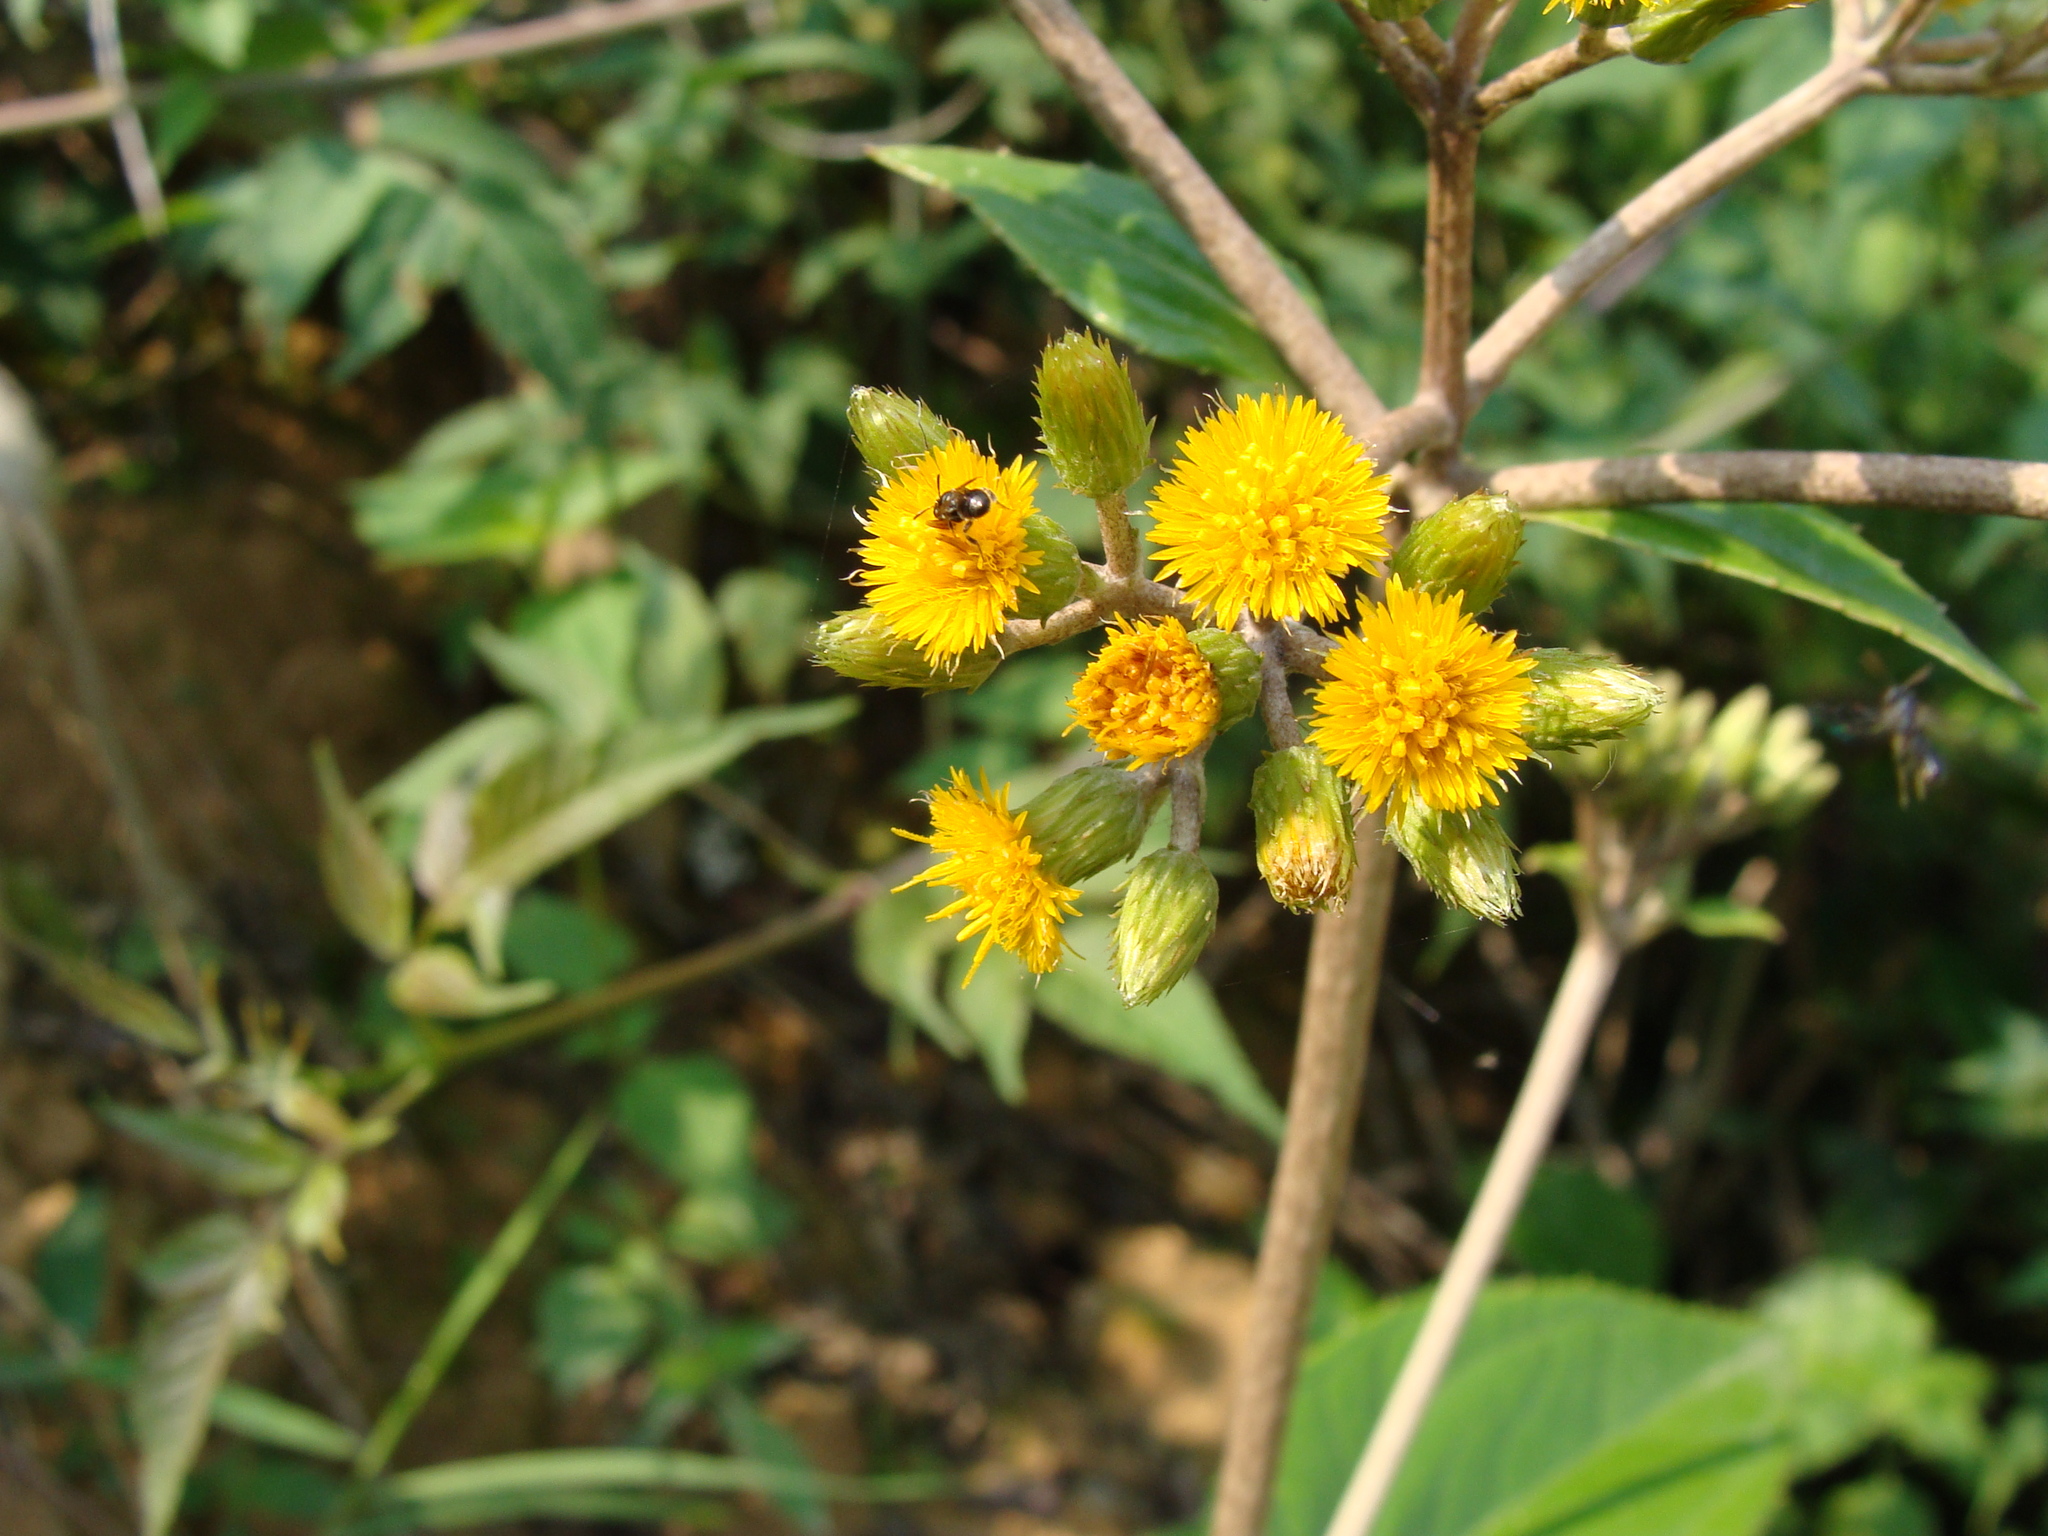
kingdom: Plantae
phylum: Tracheophyta
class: Magnoliopsida
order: Asterales
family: Asteraceae
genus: Liabum
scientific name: Liabum asclepiadeum
